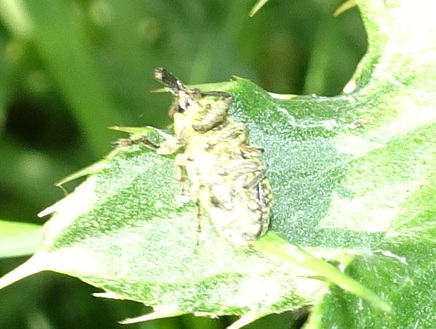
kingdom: Animalia
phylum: Arthropoda
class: Insecta
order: Coleoptera
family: Curculionidae
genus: Larinus
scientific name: Larinus carlinae
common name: Weevil
